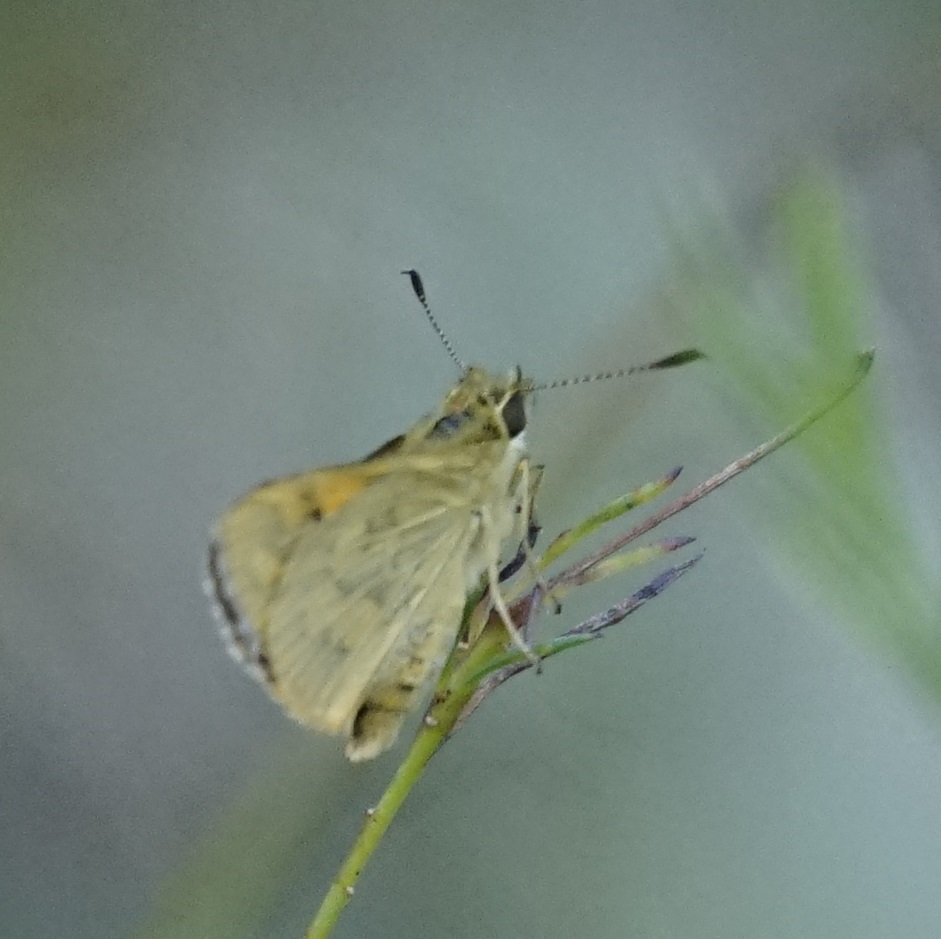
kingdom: Animalia
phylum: Arthropoda
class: Insecta
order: Lepidoptera
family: Hesperiidae
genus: Ocybadistes
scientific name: Ocybadistes walkeri
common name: Yellow-banded dart
